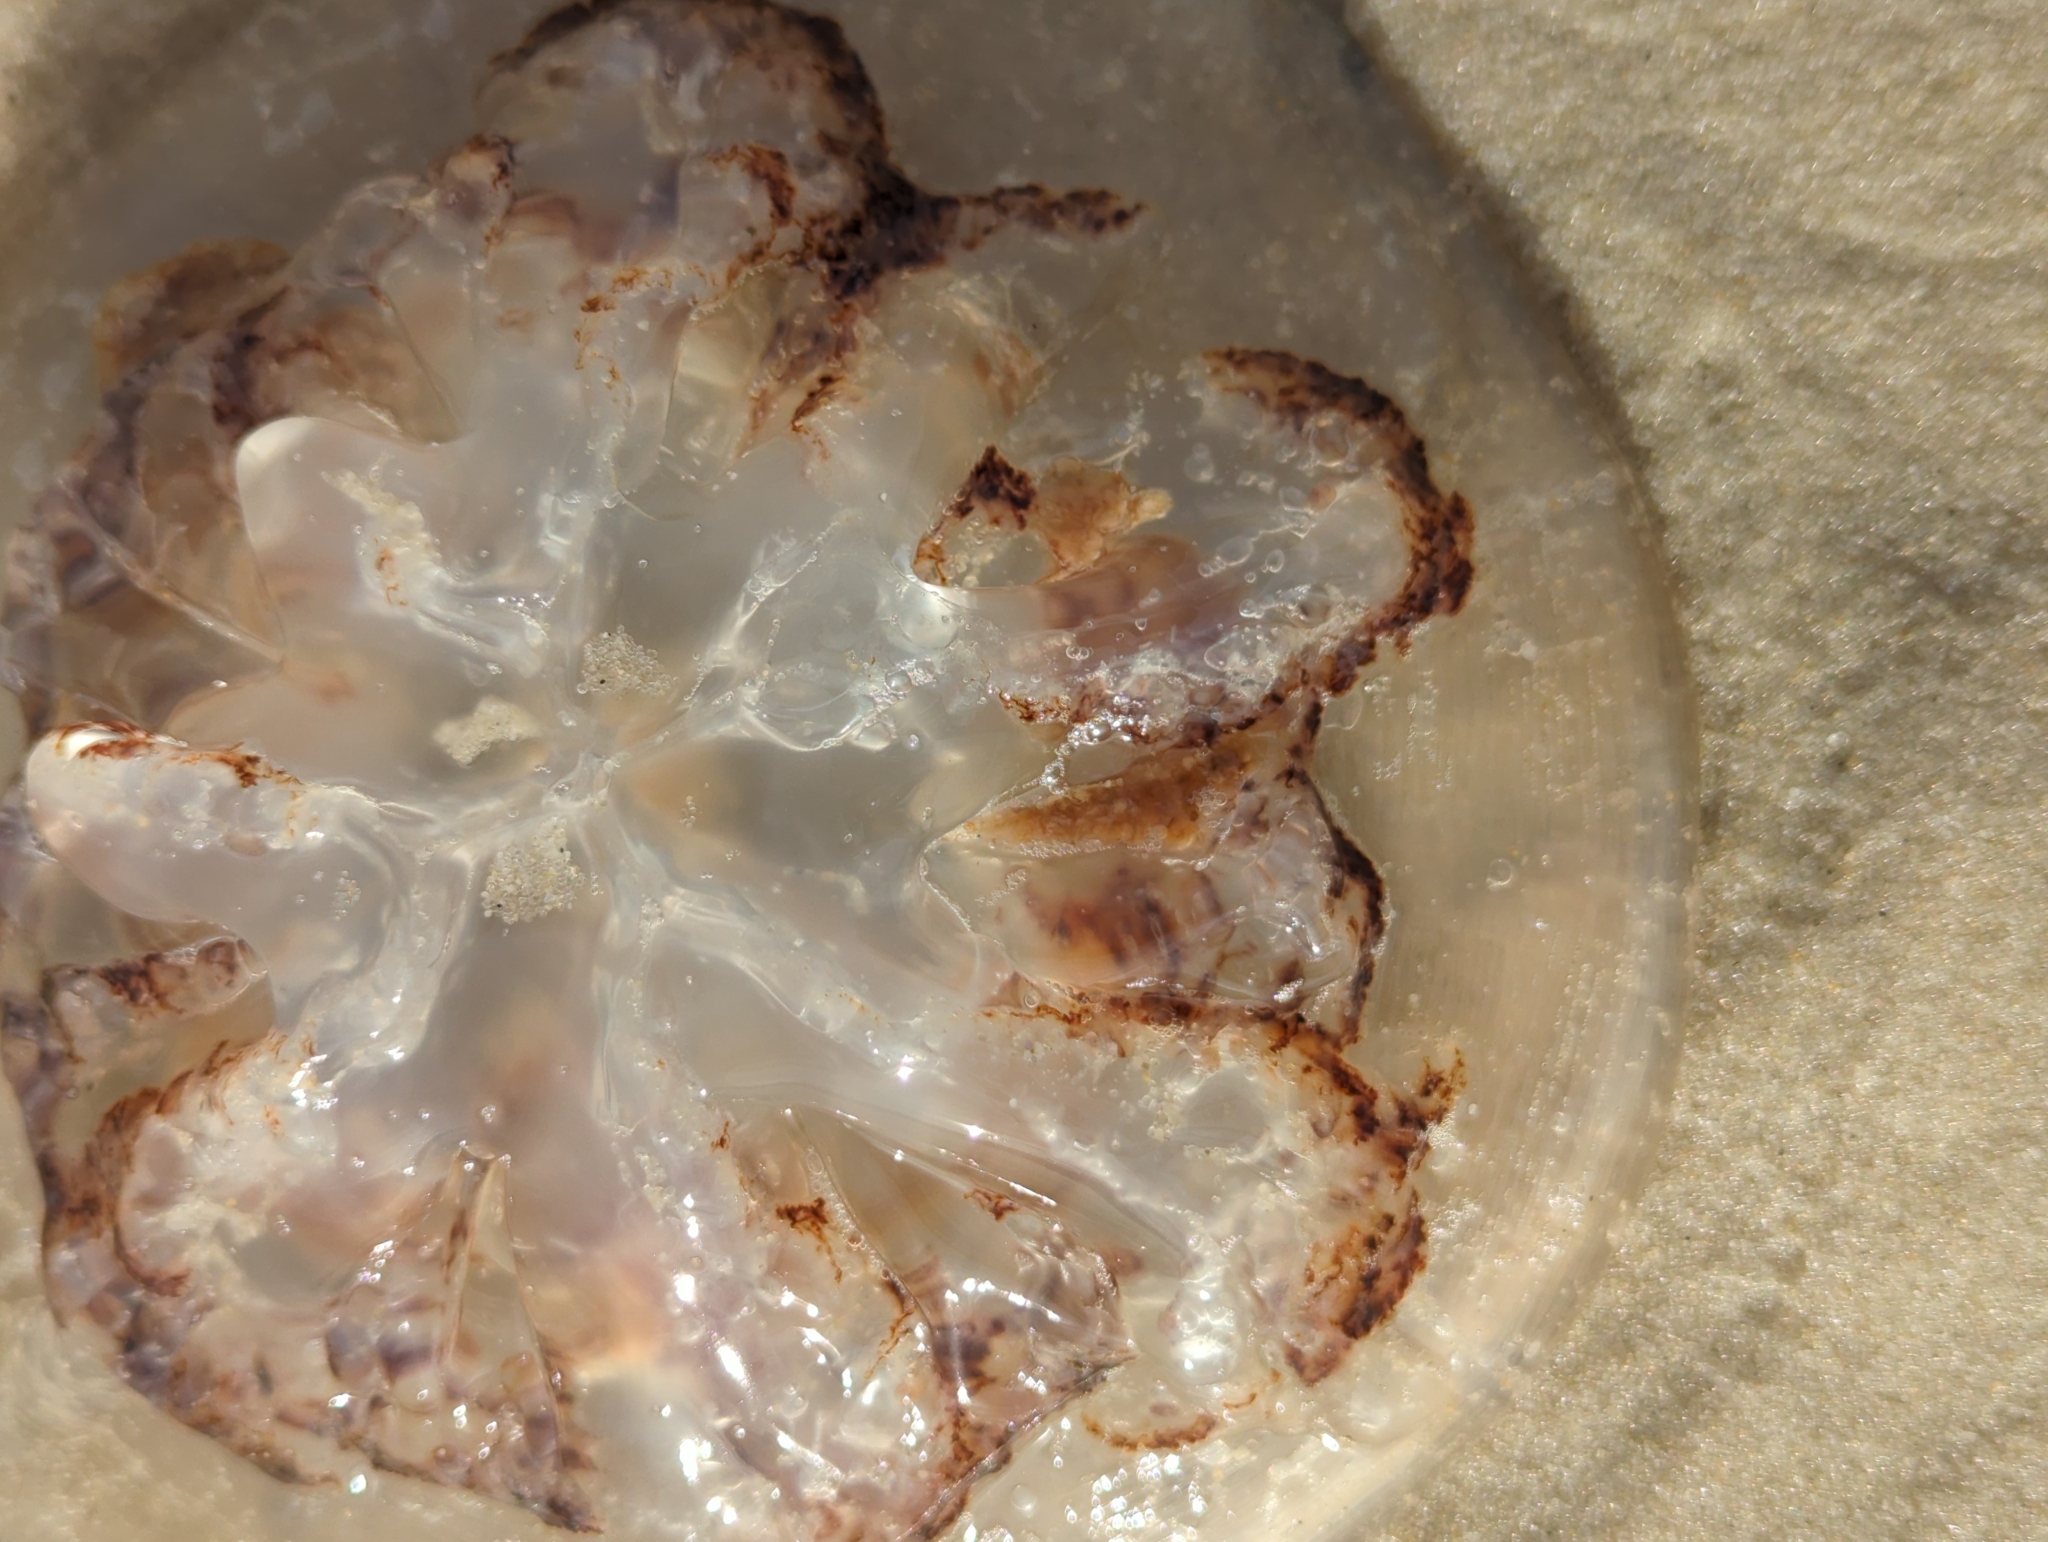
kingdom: Animalia
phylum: Cnidaria
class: Scyphozoa
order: Rhizostomeae
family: Rhizostomatidae
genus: Rhopilema
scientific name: Rhopilema verrilli
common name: Mushroom cap jellyfish
